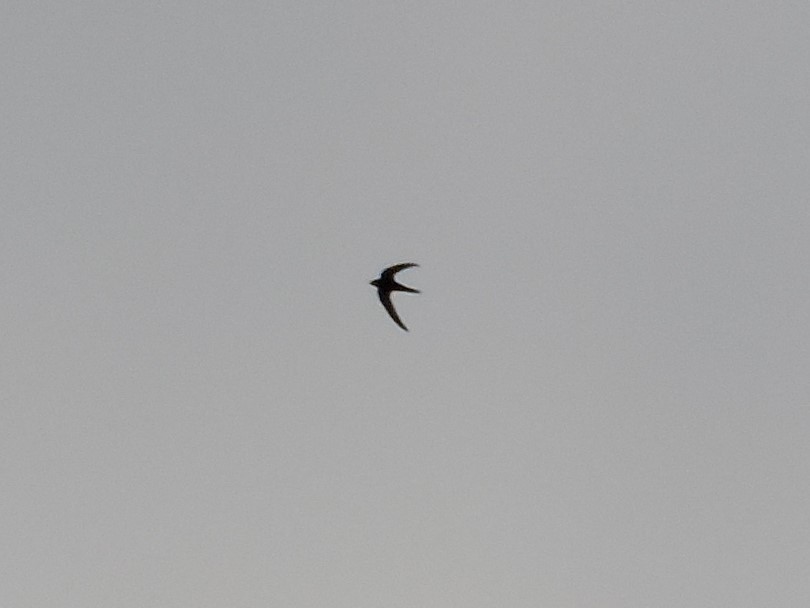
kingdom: Animalia
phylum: Chordata
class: Aves
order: Apodiformes
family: Apodidae
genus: Apus
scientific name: Apus apus
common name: Common swift
